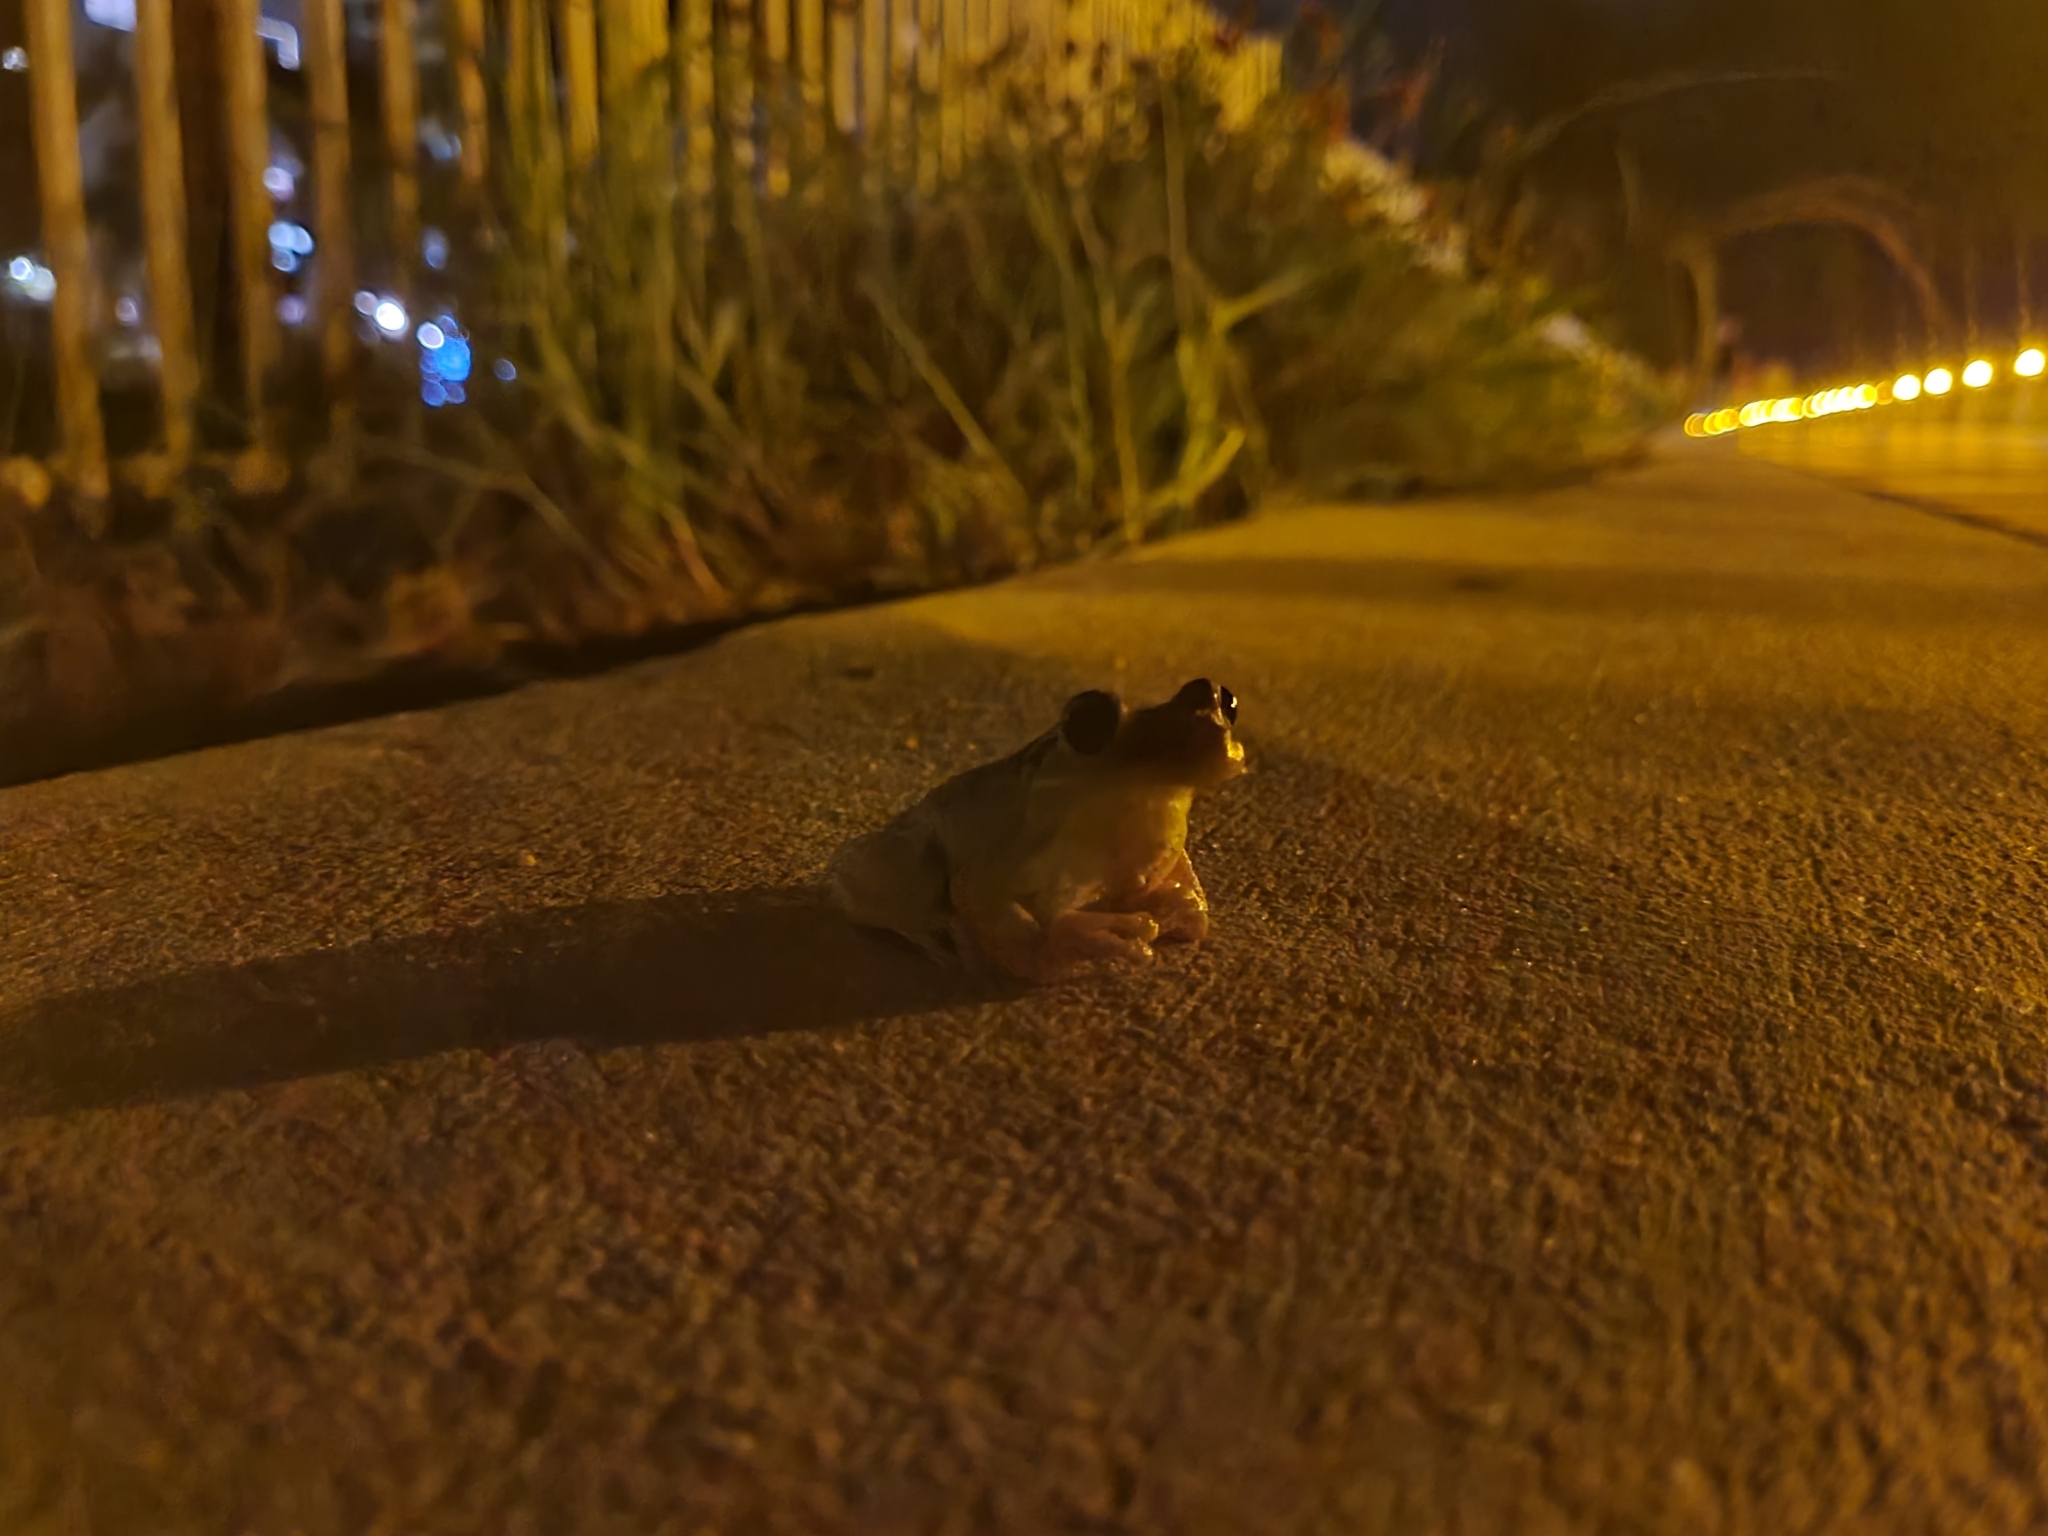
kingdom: Animalia
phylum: Chordata
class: Amphibia
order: Anura
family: Hylidae
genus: Osteopilus
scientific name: Osteopilus septentrionalis
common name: Cuban treefrog
